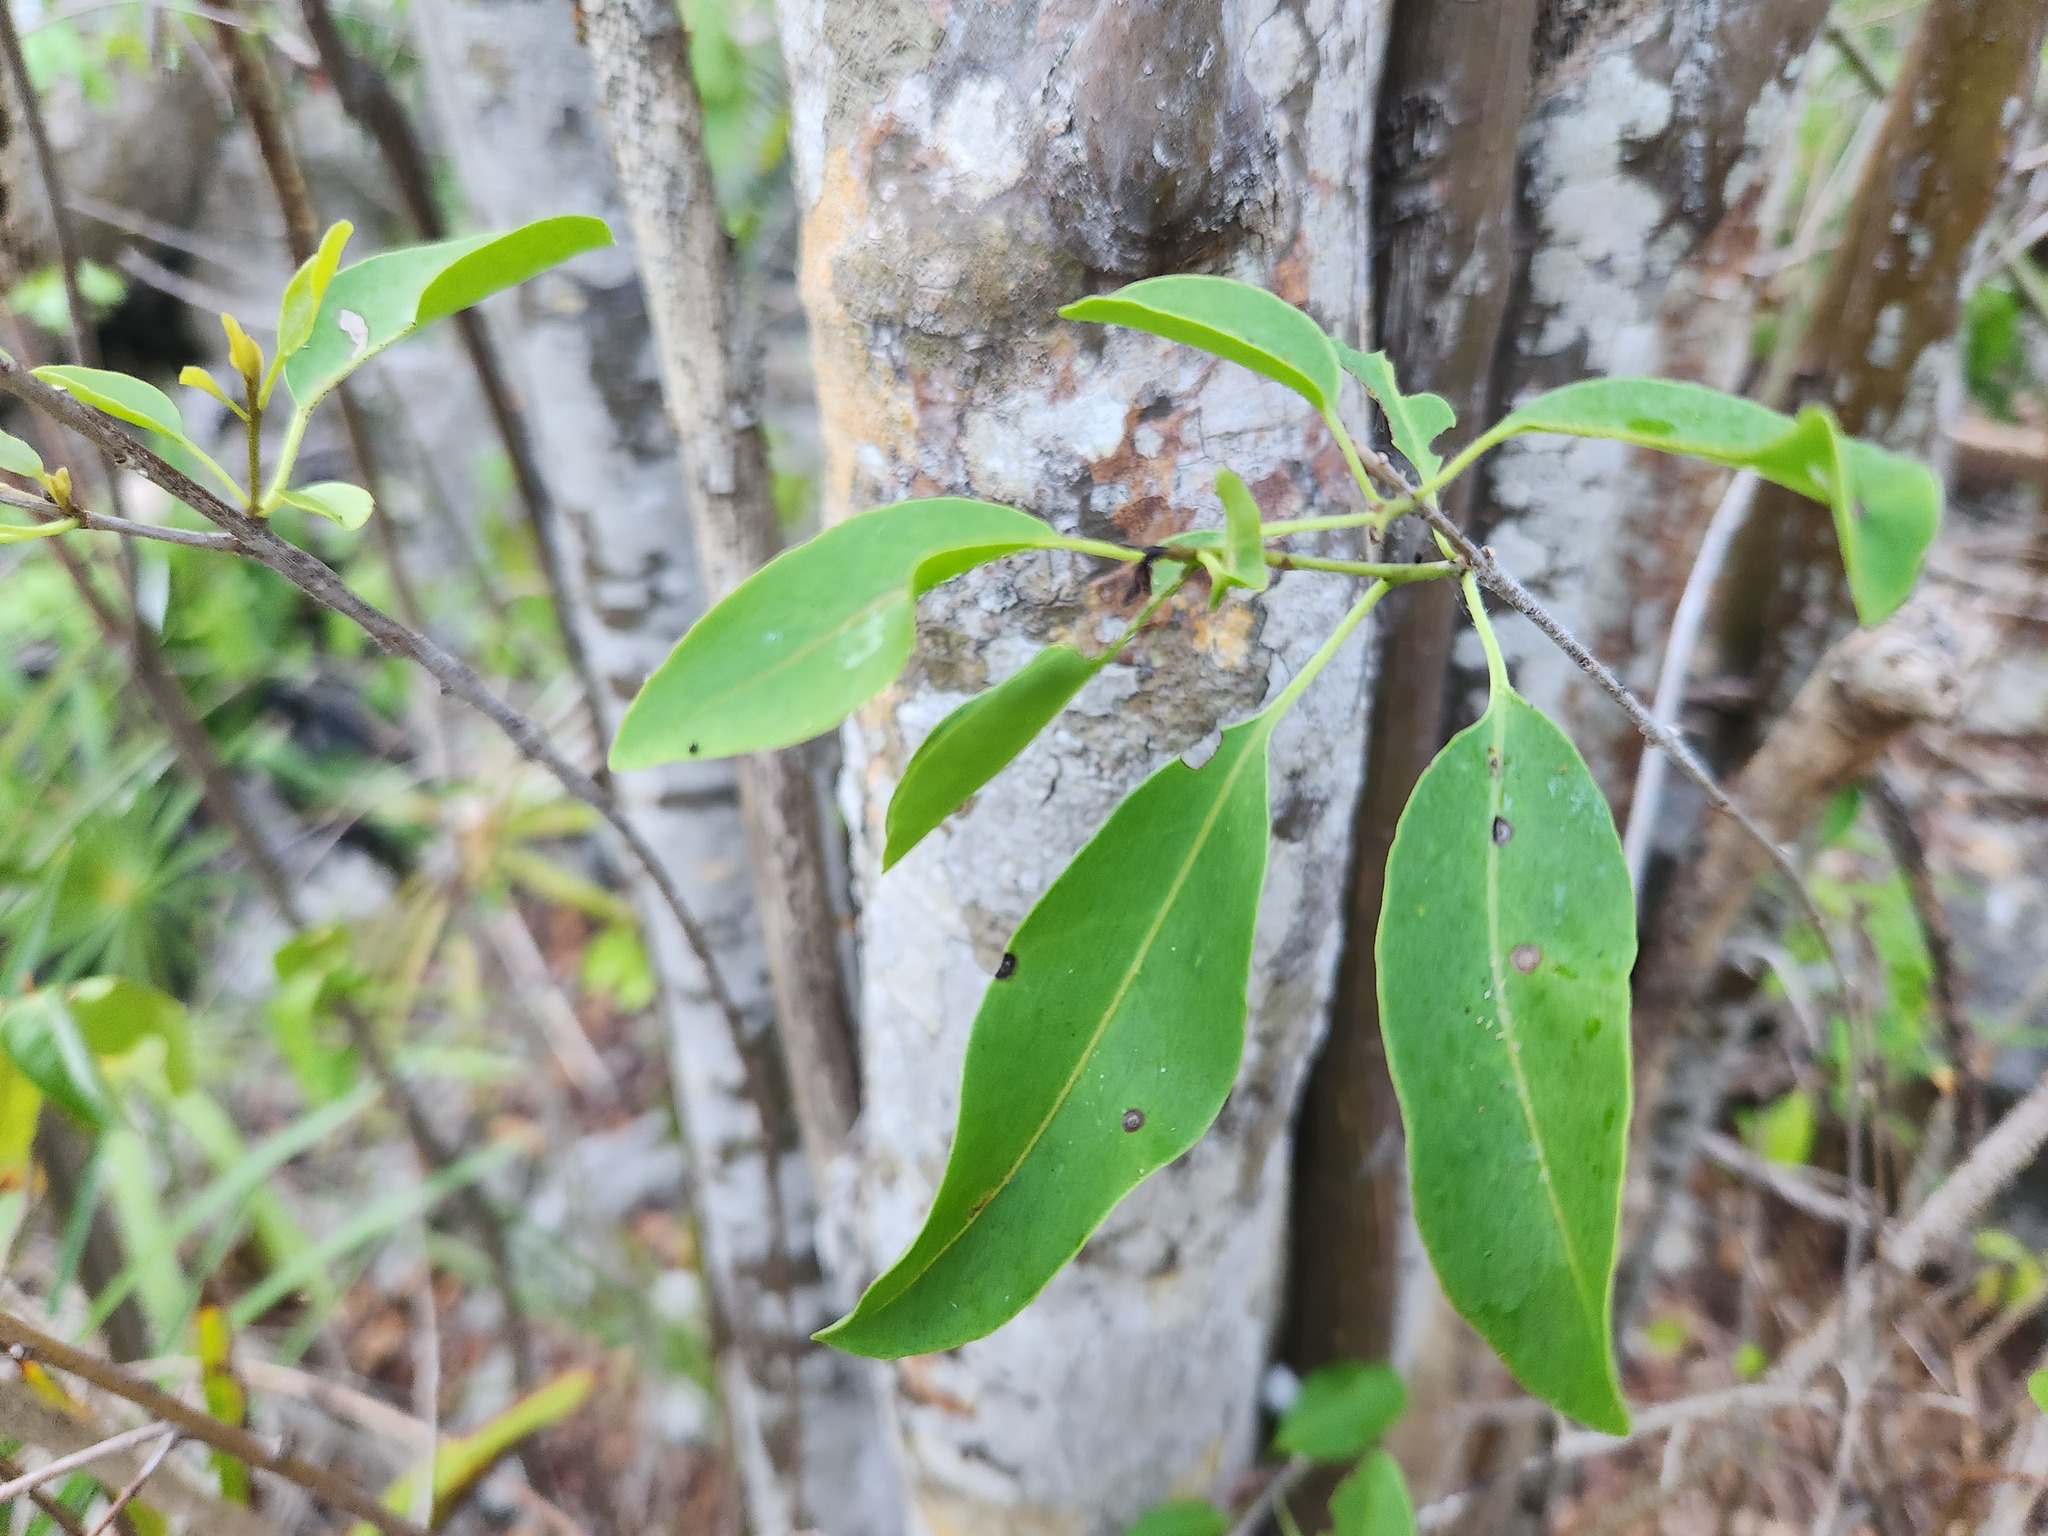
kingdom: Plantae
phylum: Tracheophyta
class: Magnoliopsida
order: Caryophyllales
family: Nyctaginaceae
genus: Guapira
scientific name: Guapira discolor
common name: Beeftree
